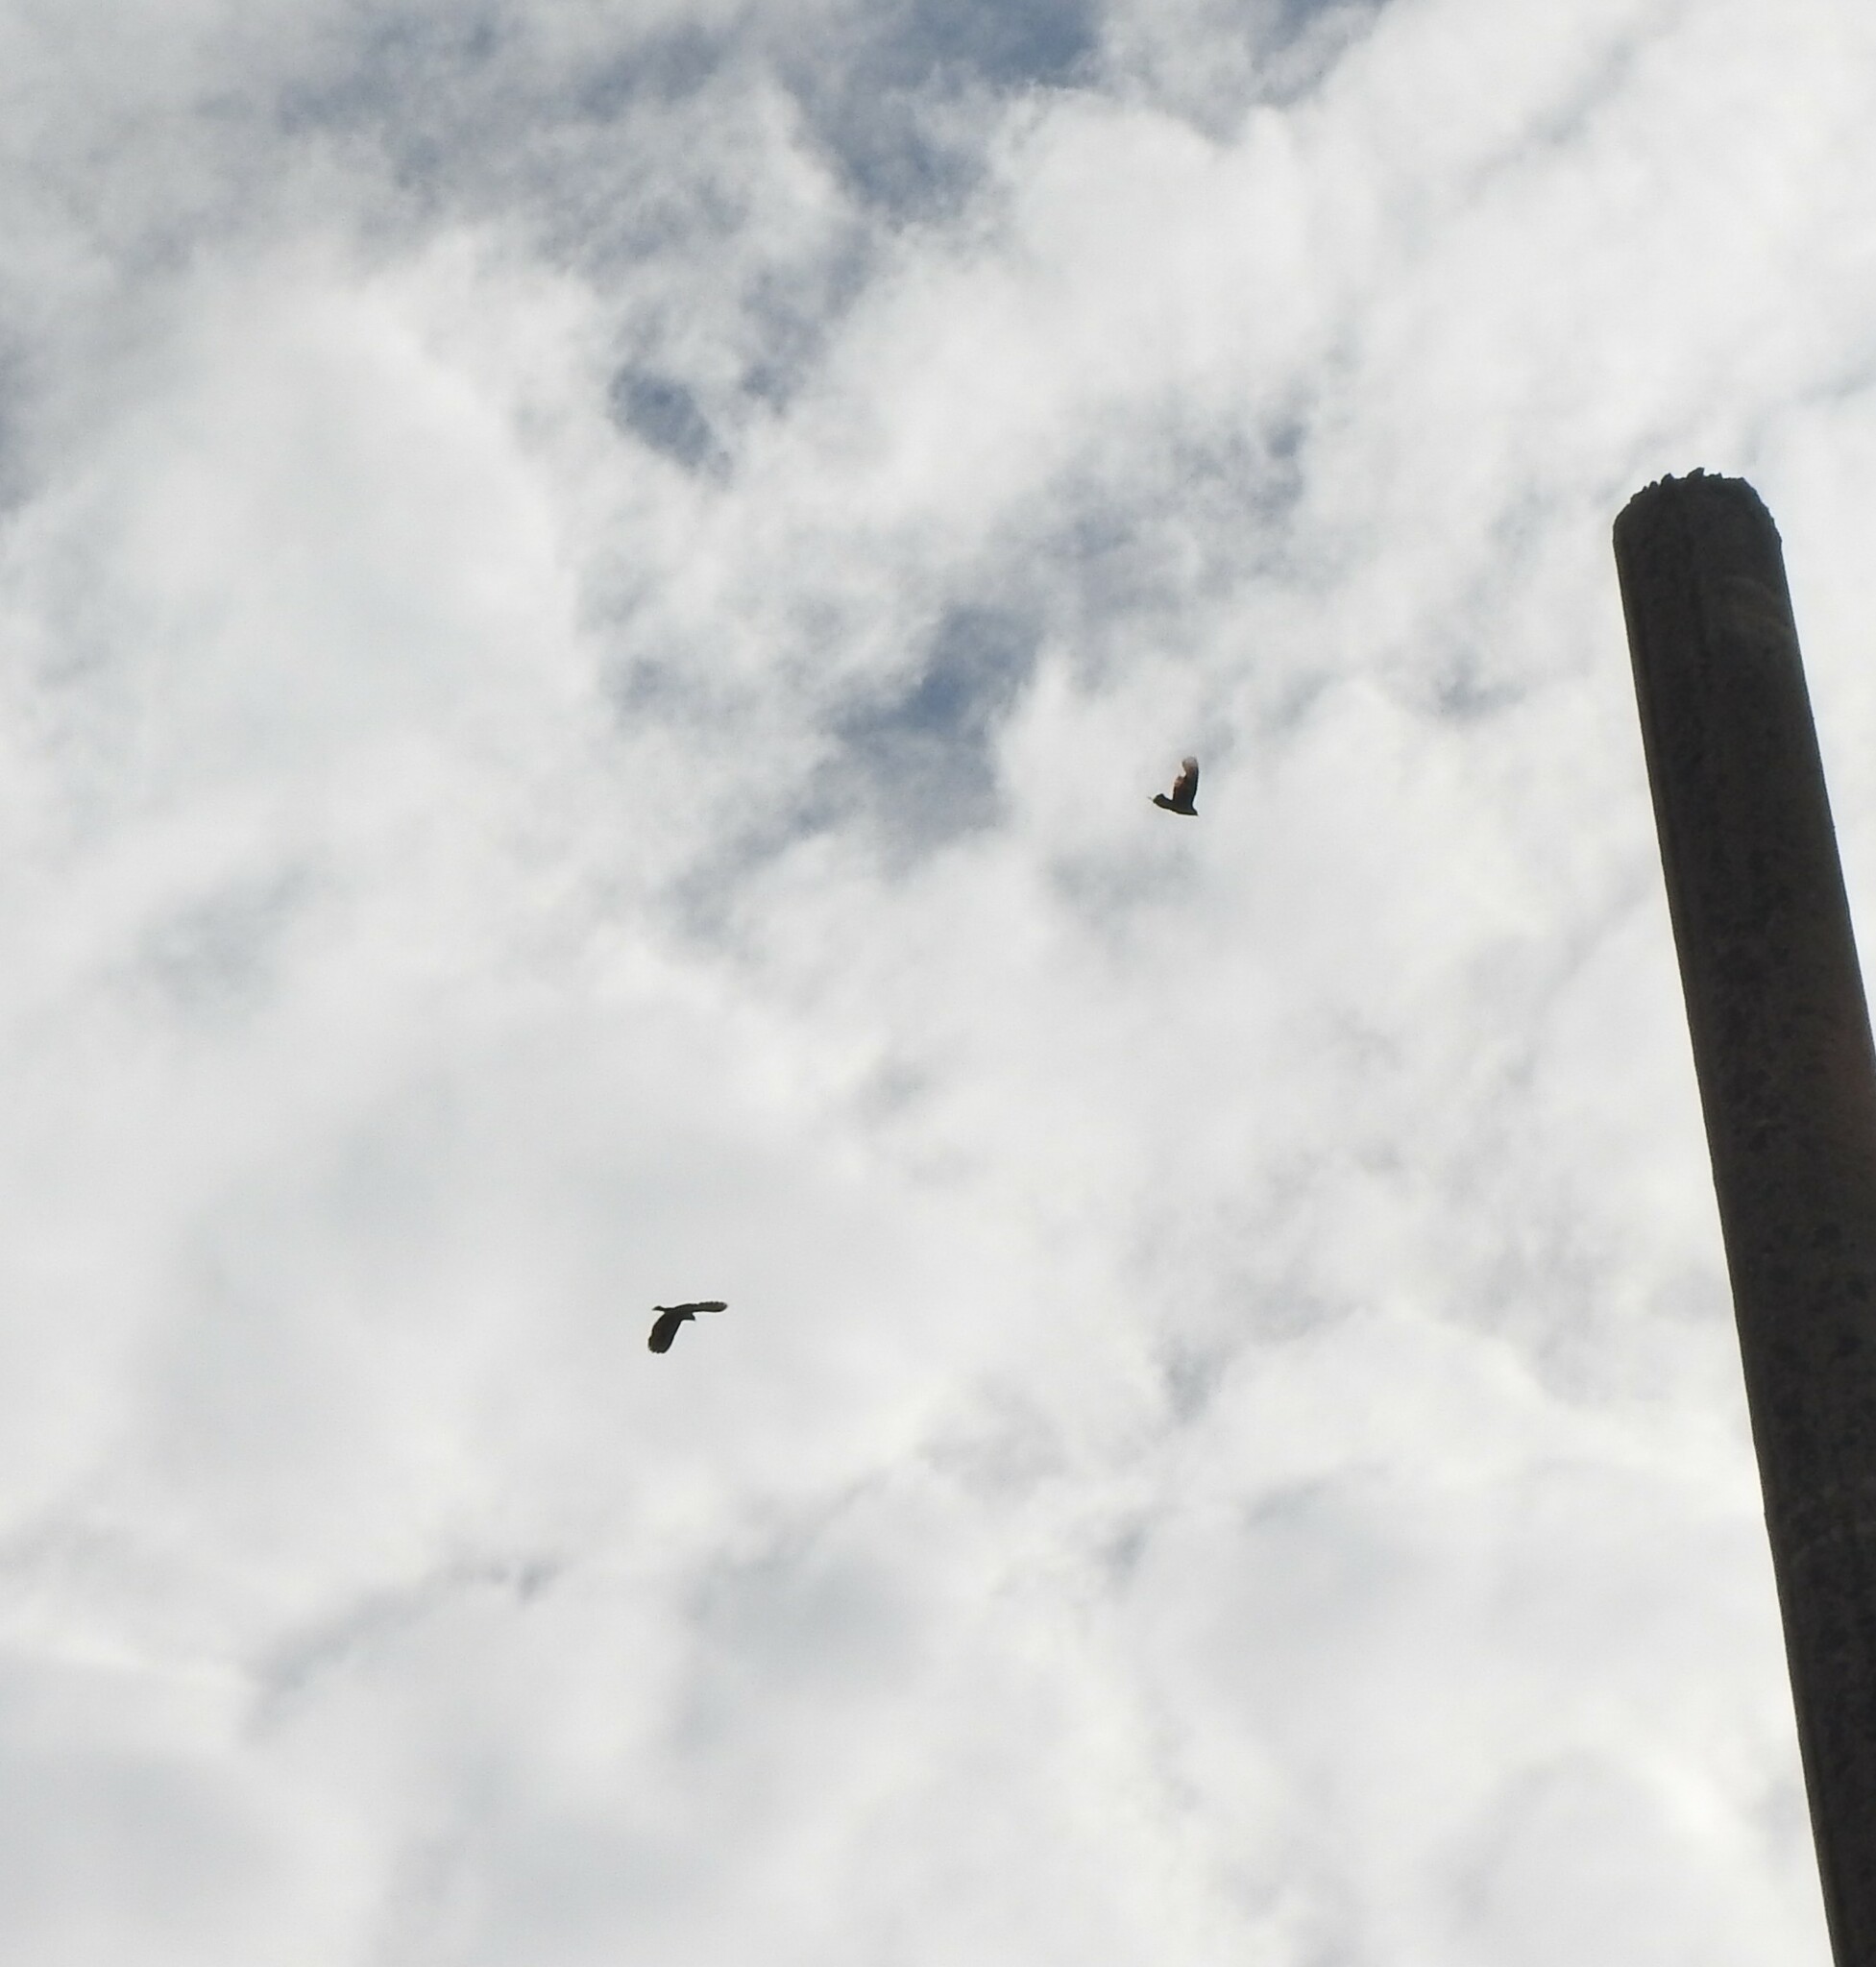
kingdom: Animalia
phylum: Chordata
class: Aves
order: Passeriformes
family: Icteridae
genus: Agelaius
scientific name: Agelaius phoeniceus
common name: Red-winged blackbird
